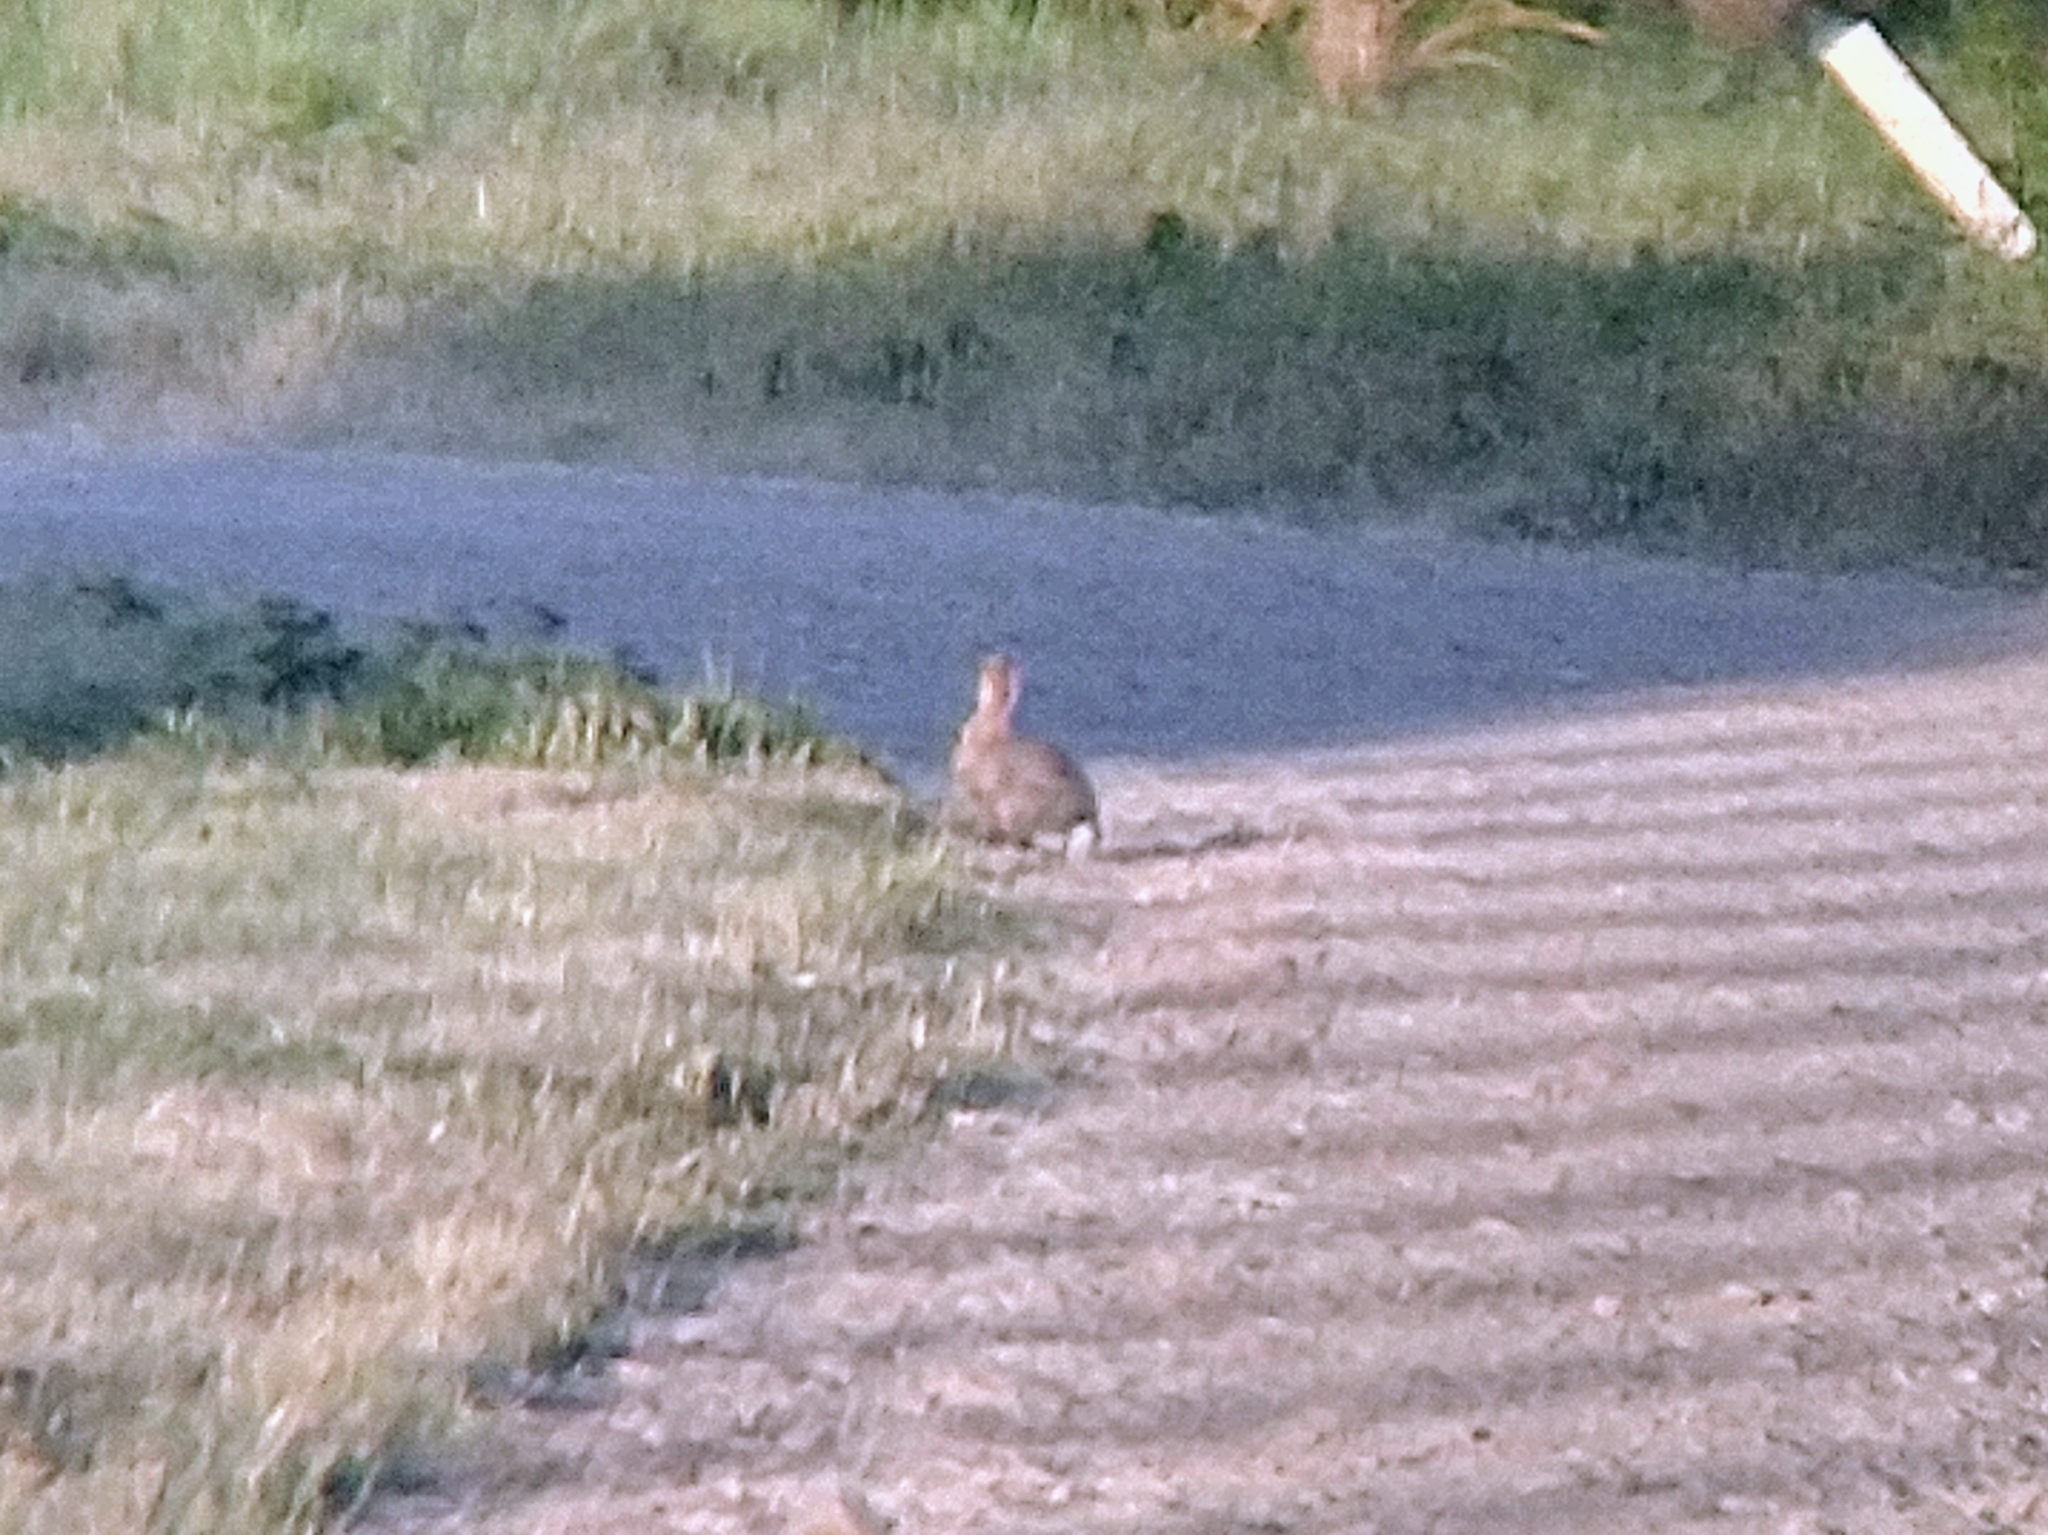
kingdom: Animalia
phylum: Chordata
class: Mammalia
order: Lagomorpha
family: Leporidae
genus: Sylvilagus
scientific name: Sylvilagus audubonii
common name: Desert cottontail
